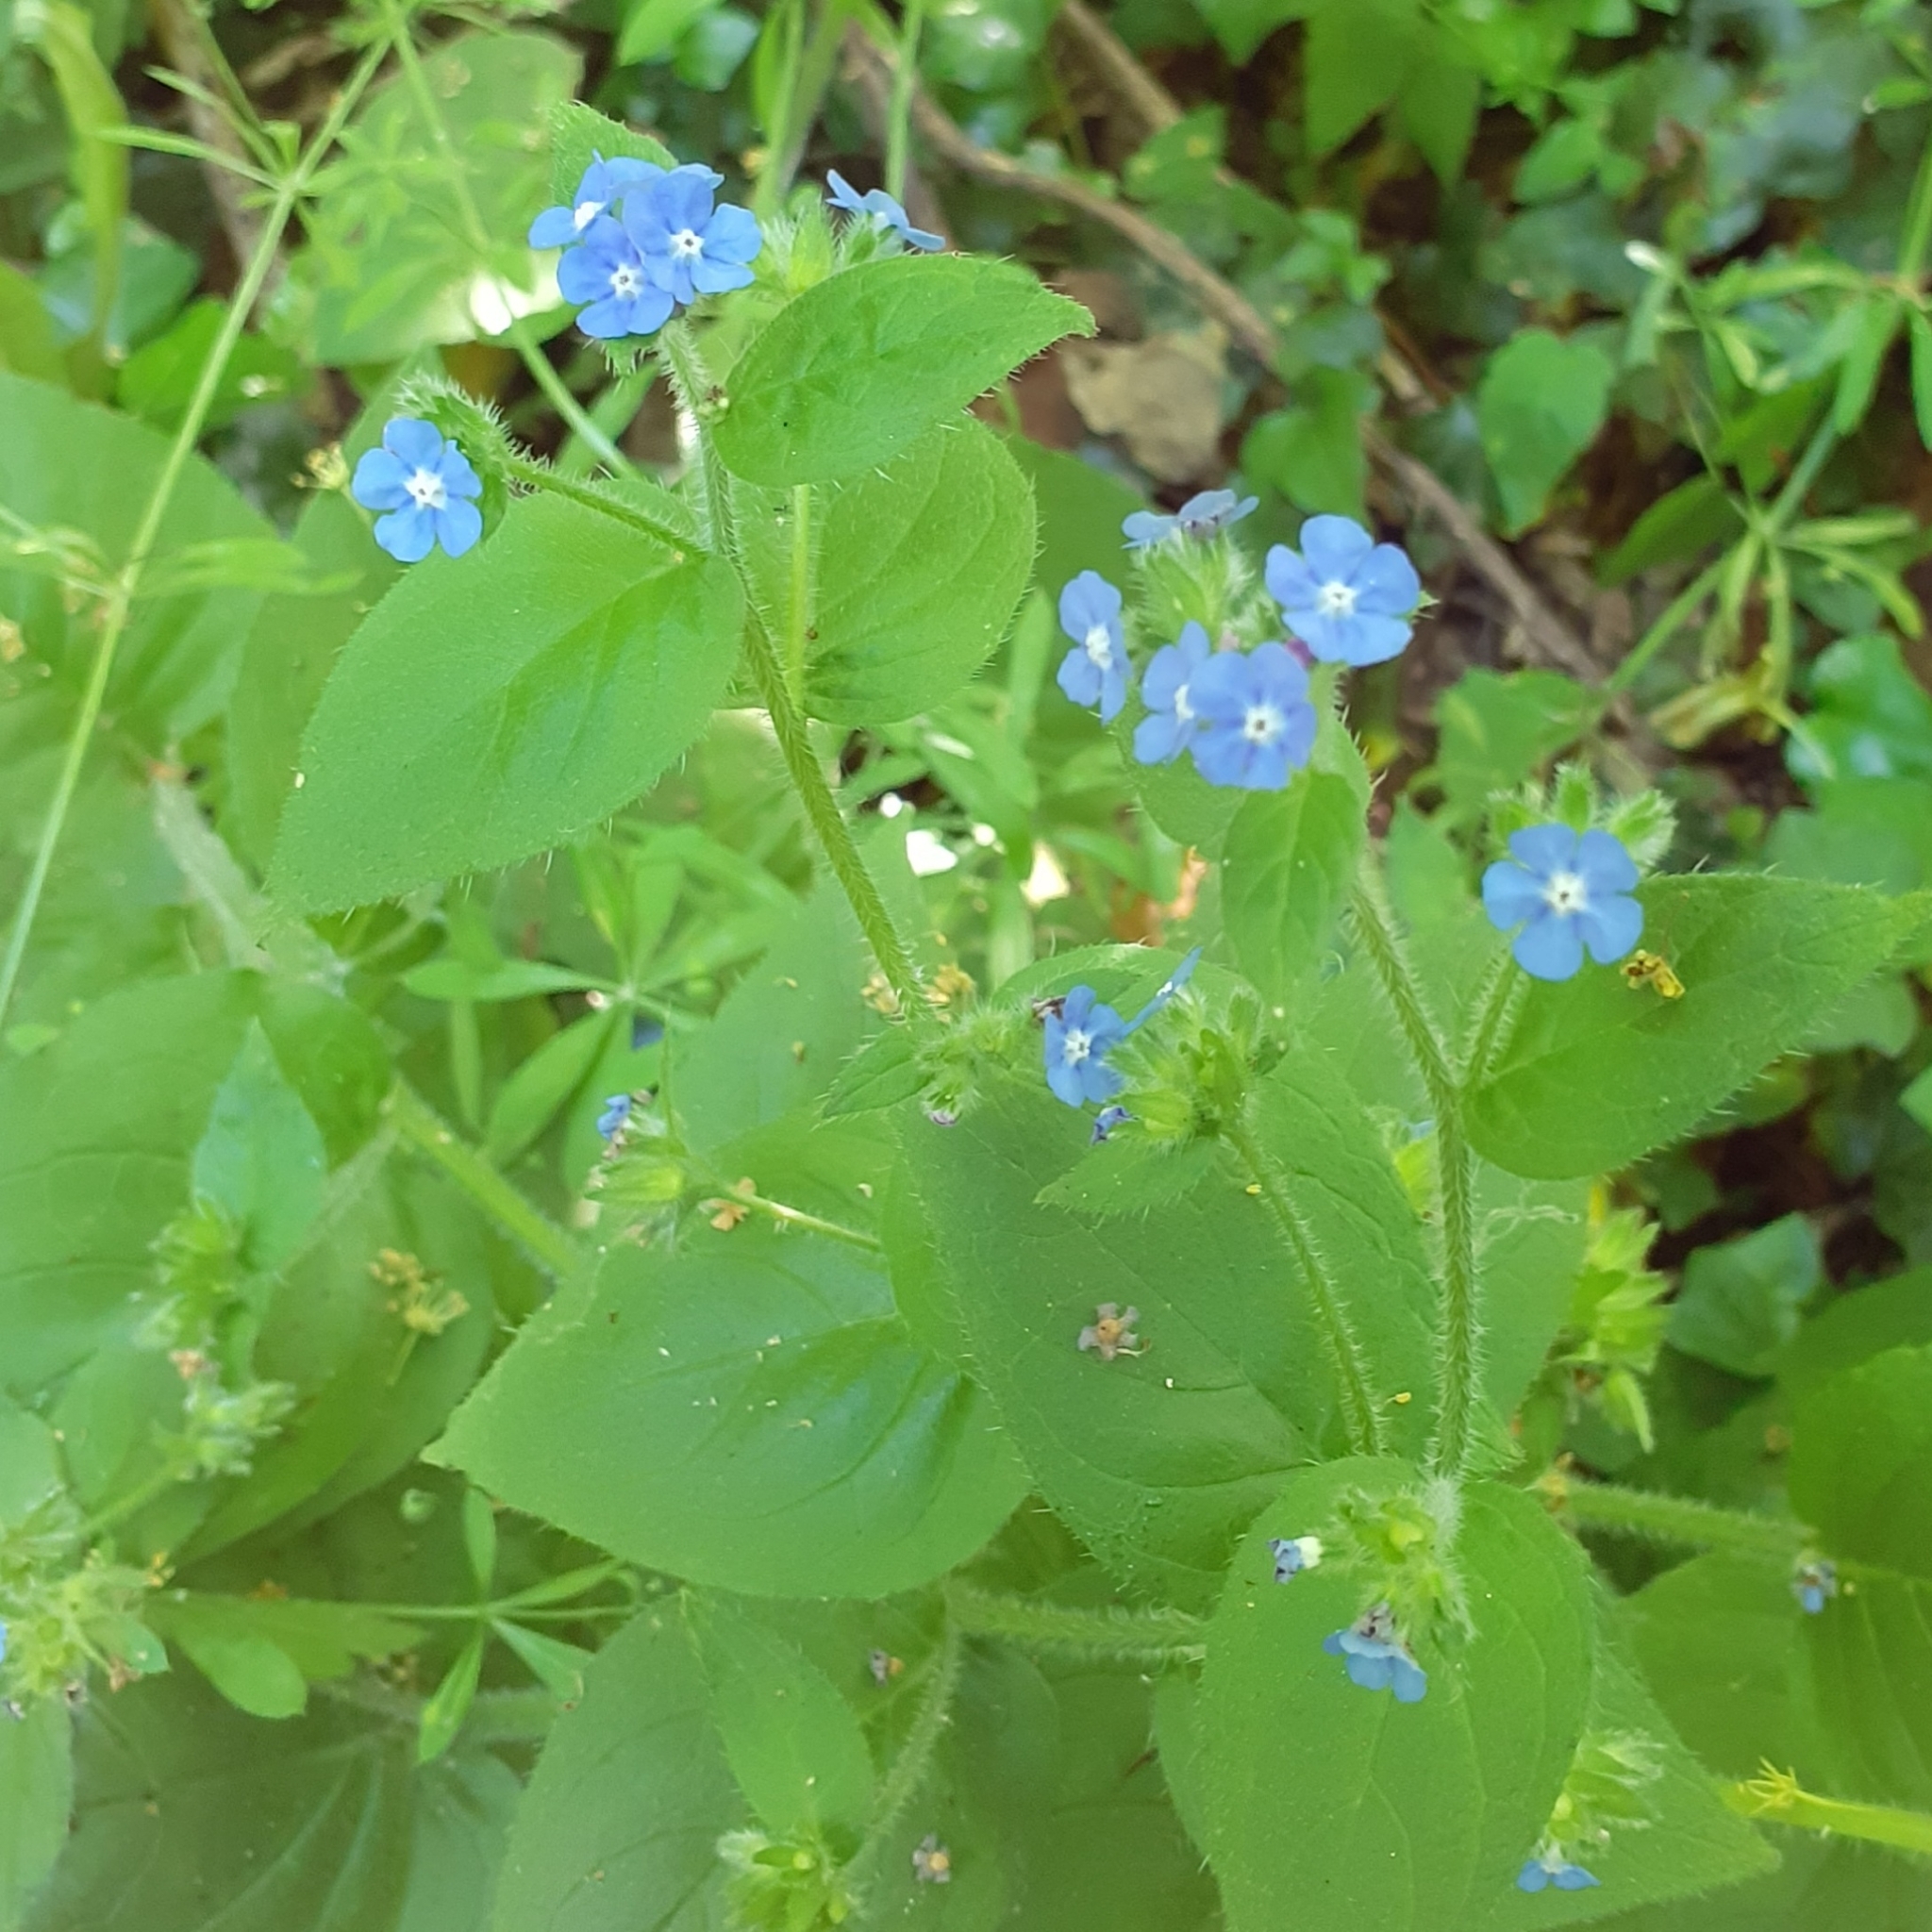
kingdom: Plantae
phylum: Tracheophyta
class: Magnoliopsida
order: Boraginales
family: Boraginaceae
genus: Pentaglottis
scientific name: Pentaglottis sempervirens
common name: Green alkanet
